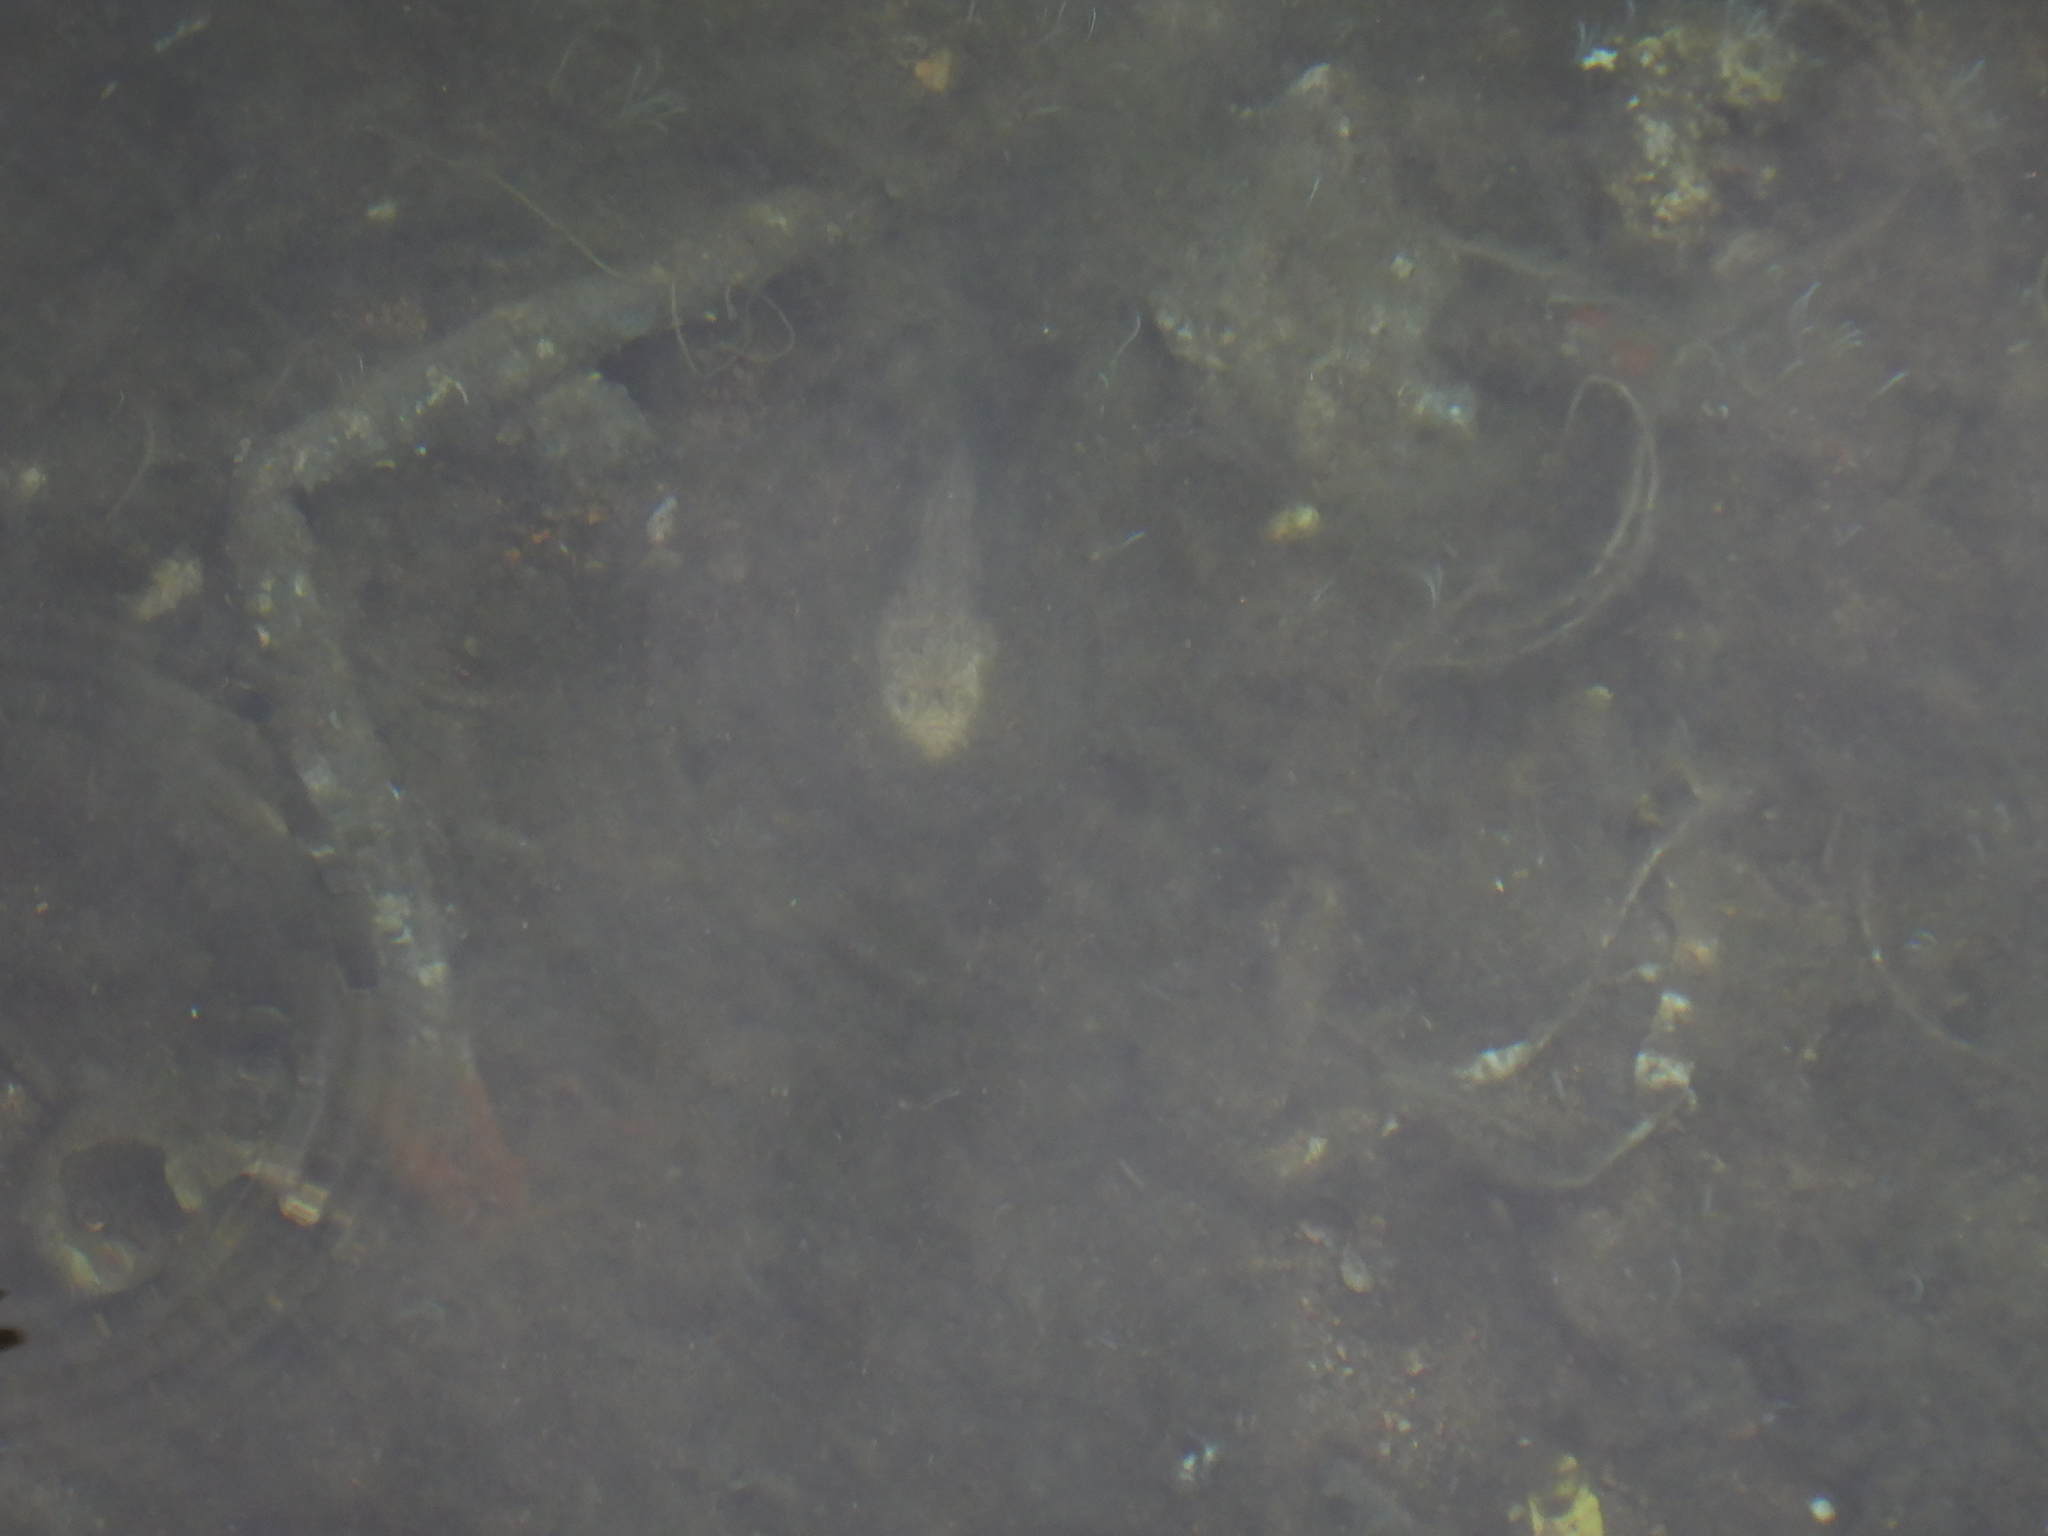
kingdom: Animalia
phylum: Chordata
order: Perciformes
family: Uranoscopidae
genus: Uranoscopus
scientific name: Uranoscopus scaber
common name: Stargazer
